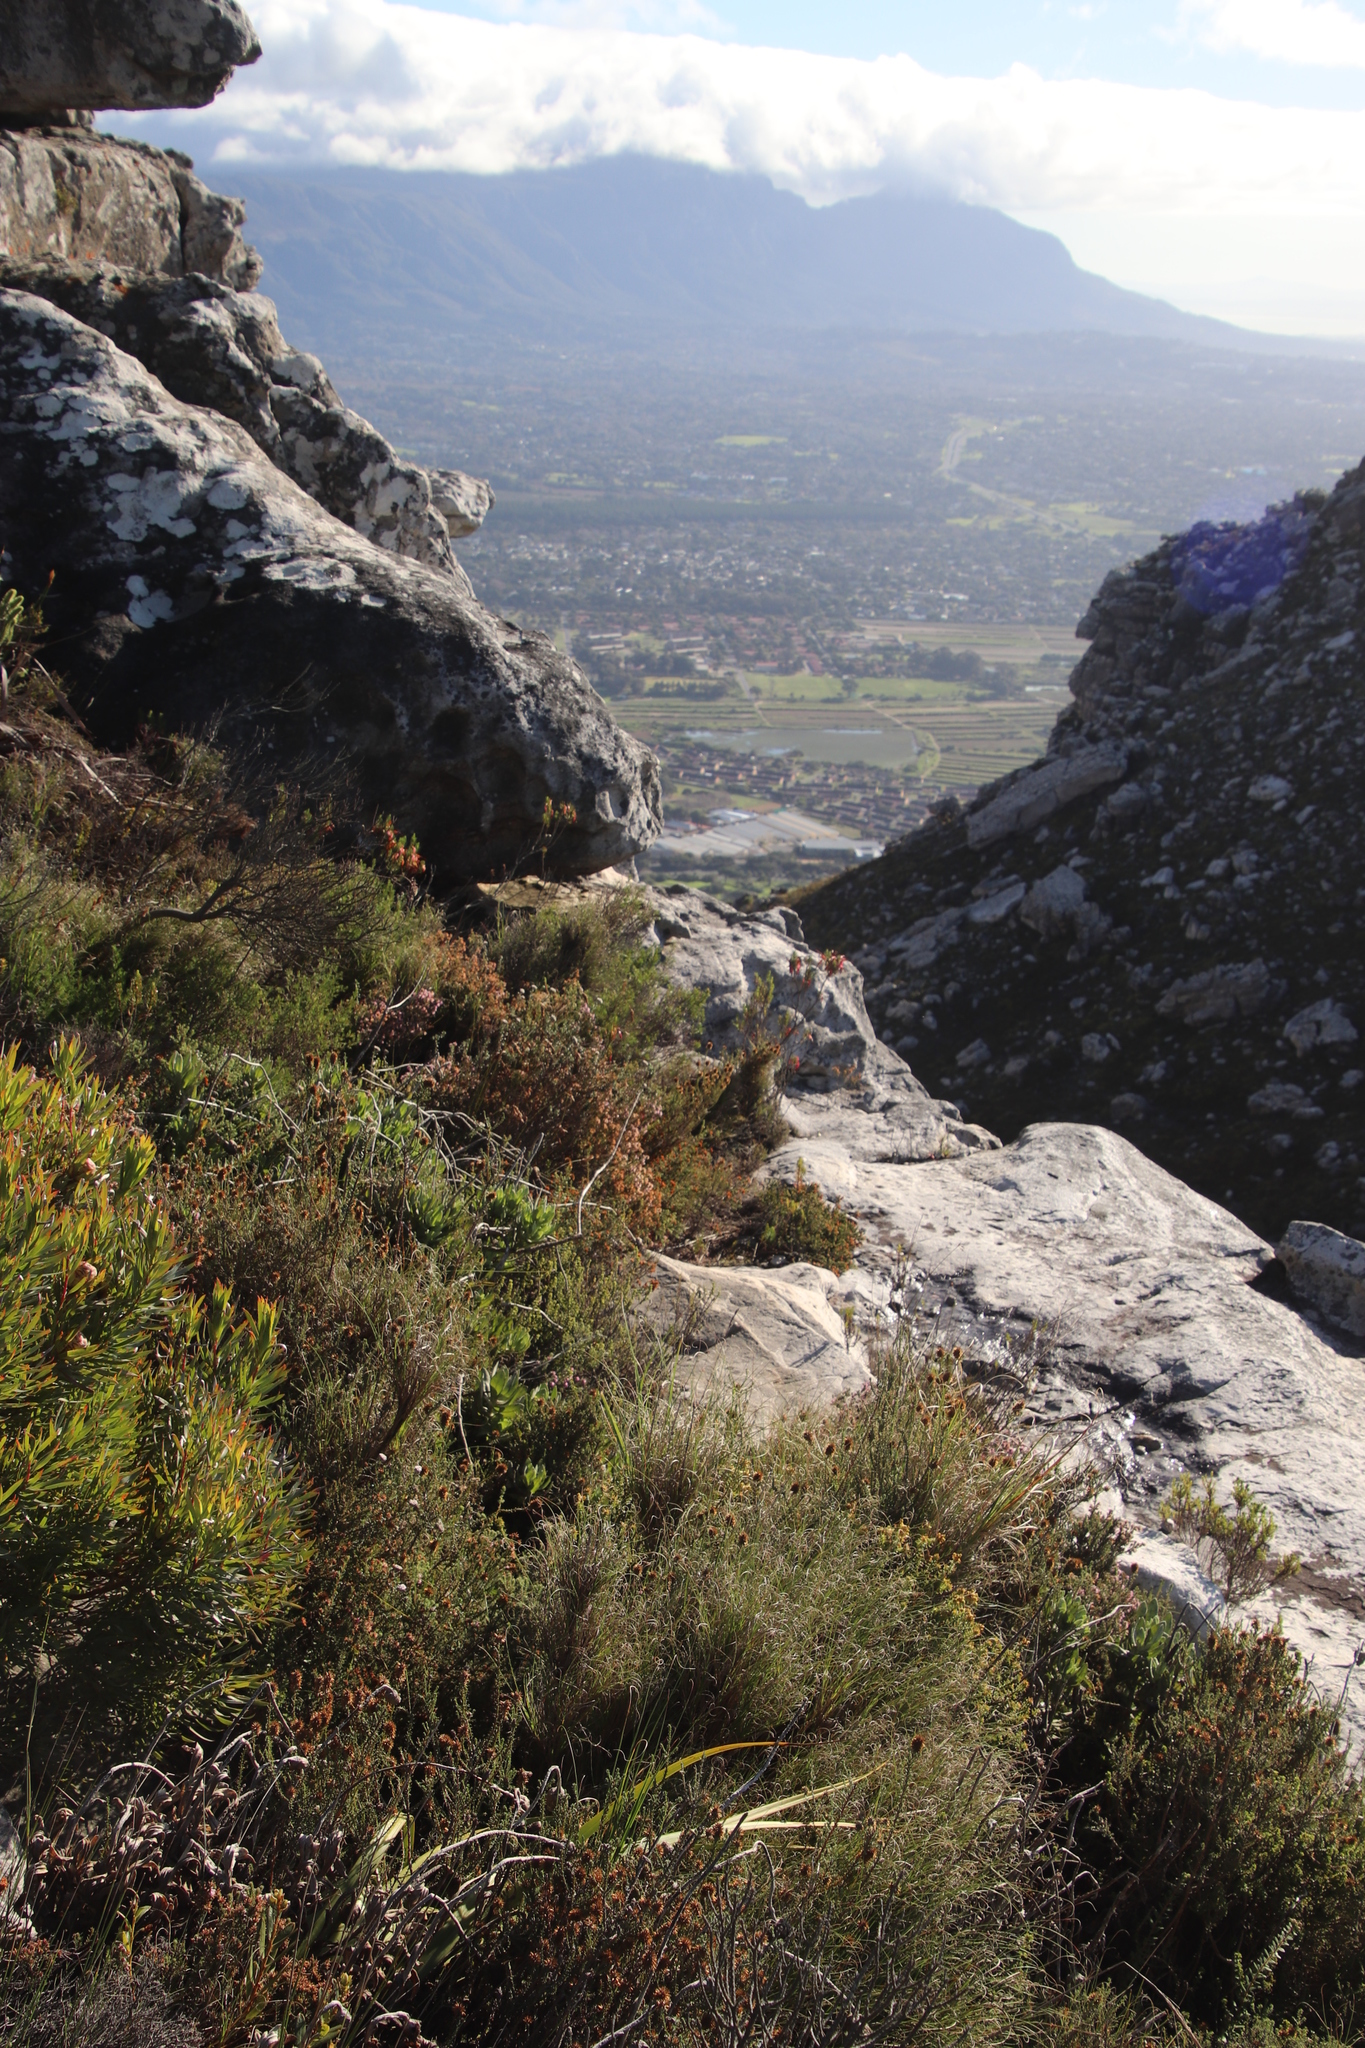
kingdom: Plantae
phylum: Tracheophyta
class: Liliopsida
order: Poales
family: Poaceae
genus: Pseudopentameris
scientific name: Pseudopentameris macrantha
